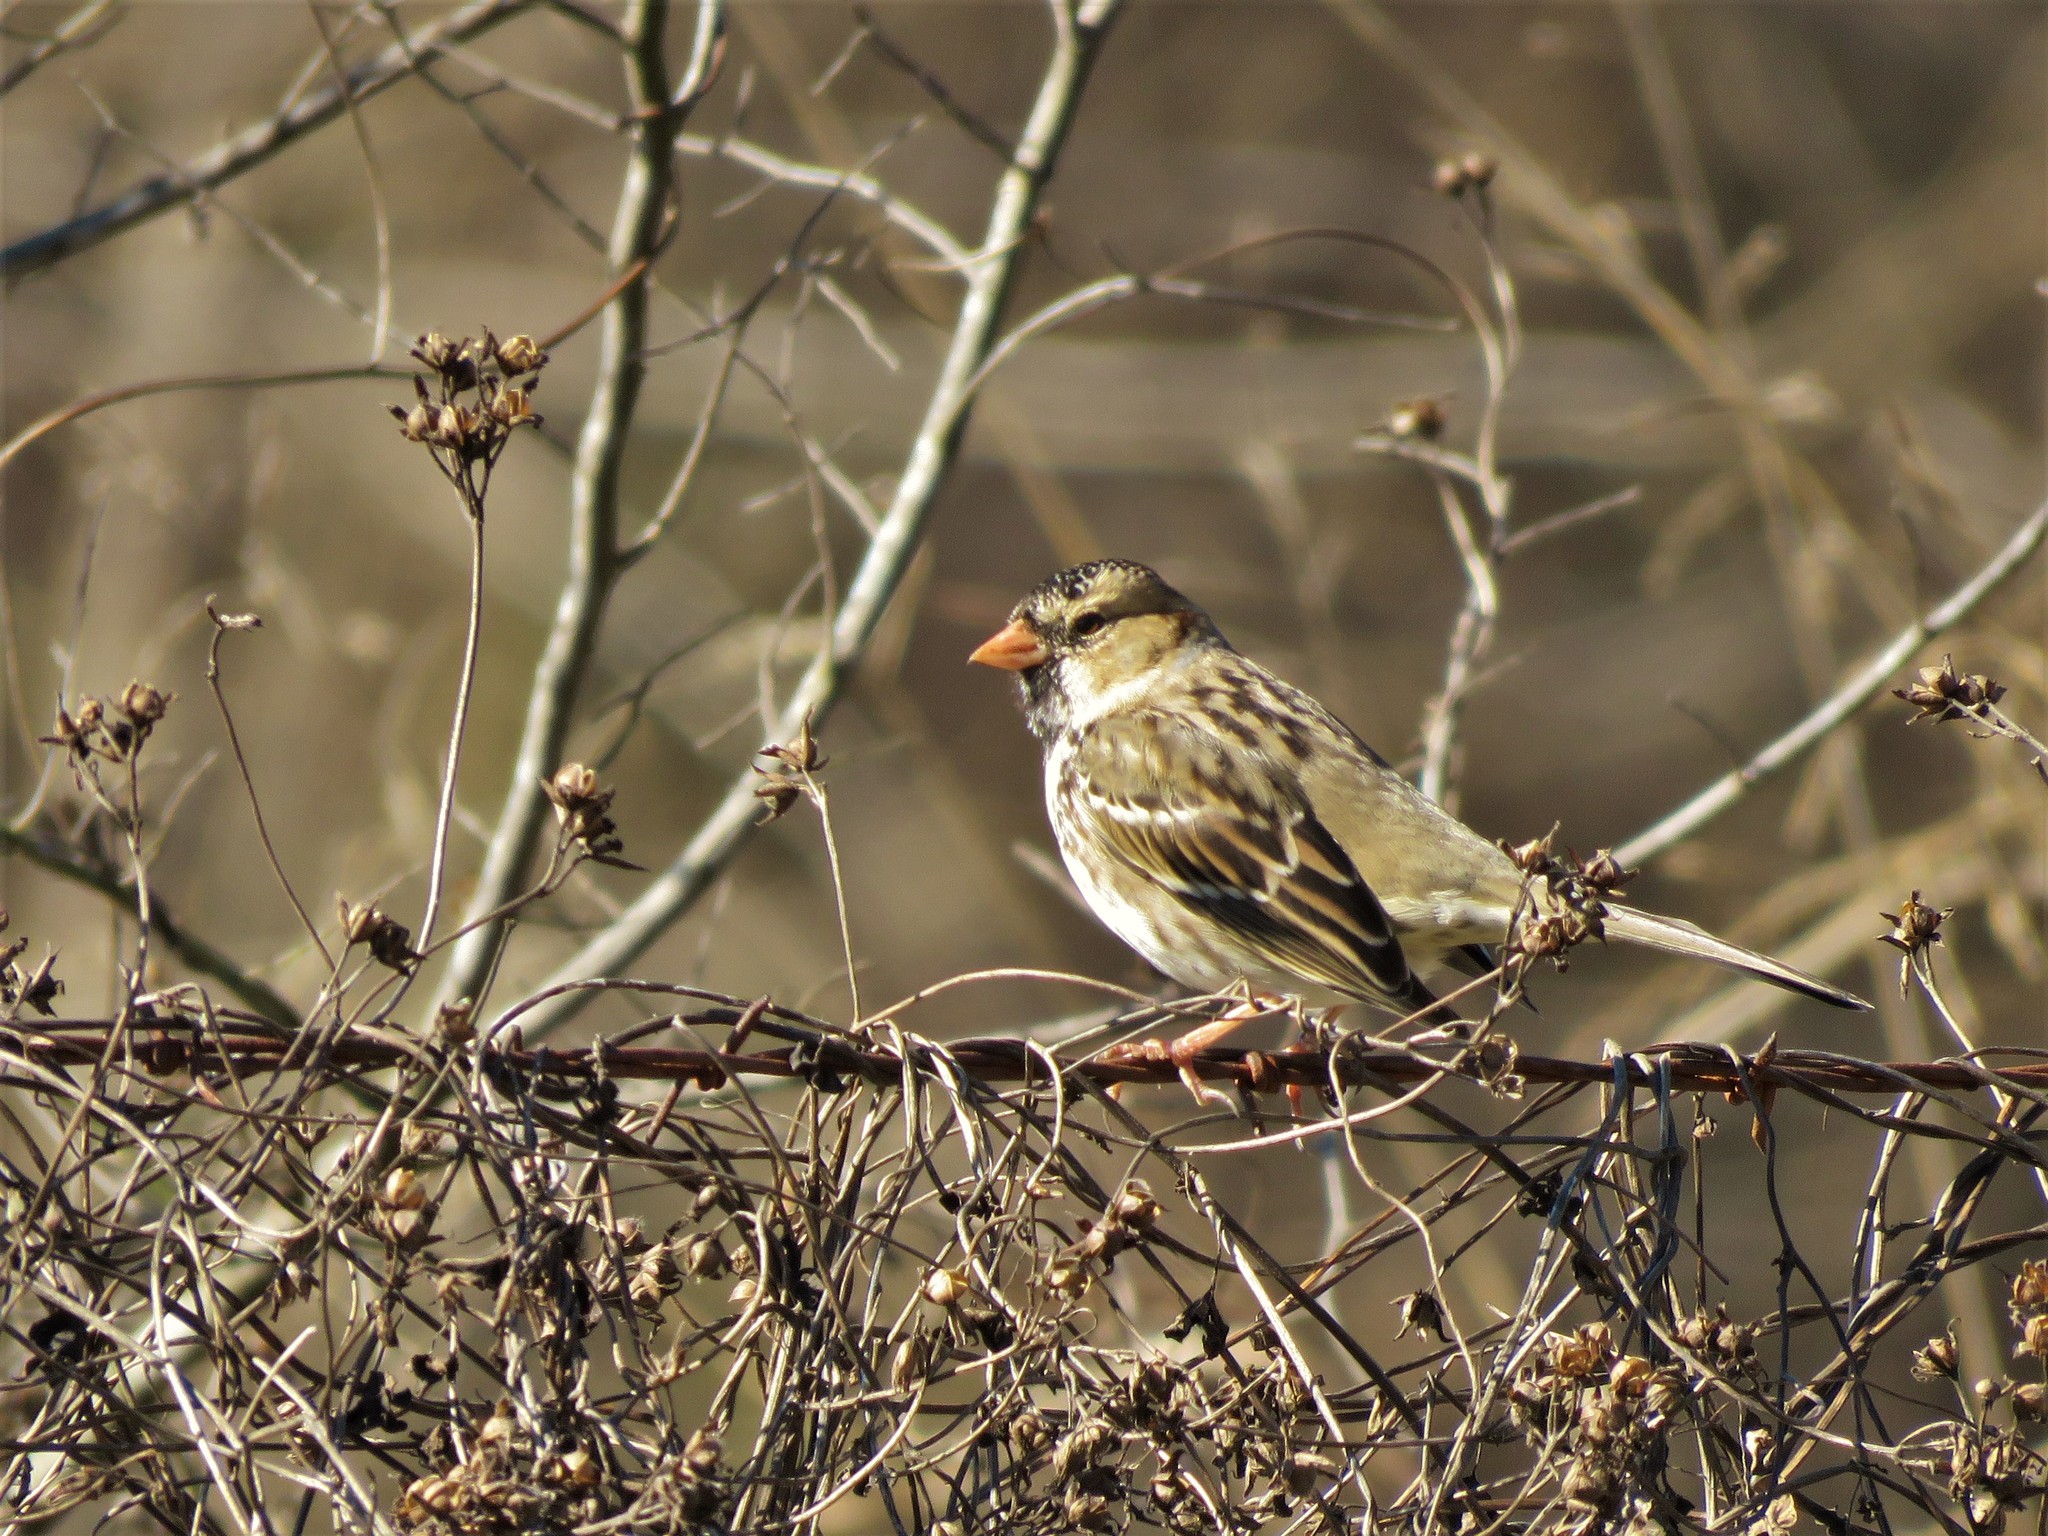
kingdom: Animalia
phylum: Chordata
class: Aves
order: Passeriformes
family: Passerellidae
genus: Zonotrichia
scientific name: Zonotrichia querula
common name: Harris's sparrow
